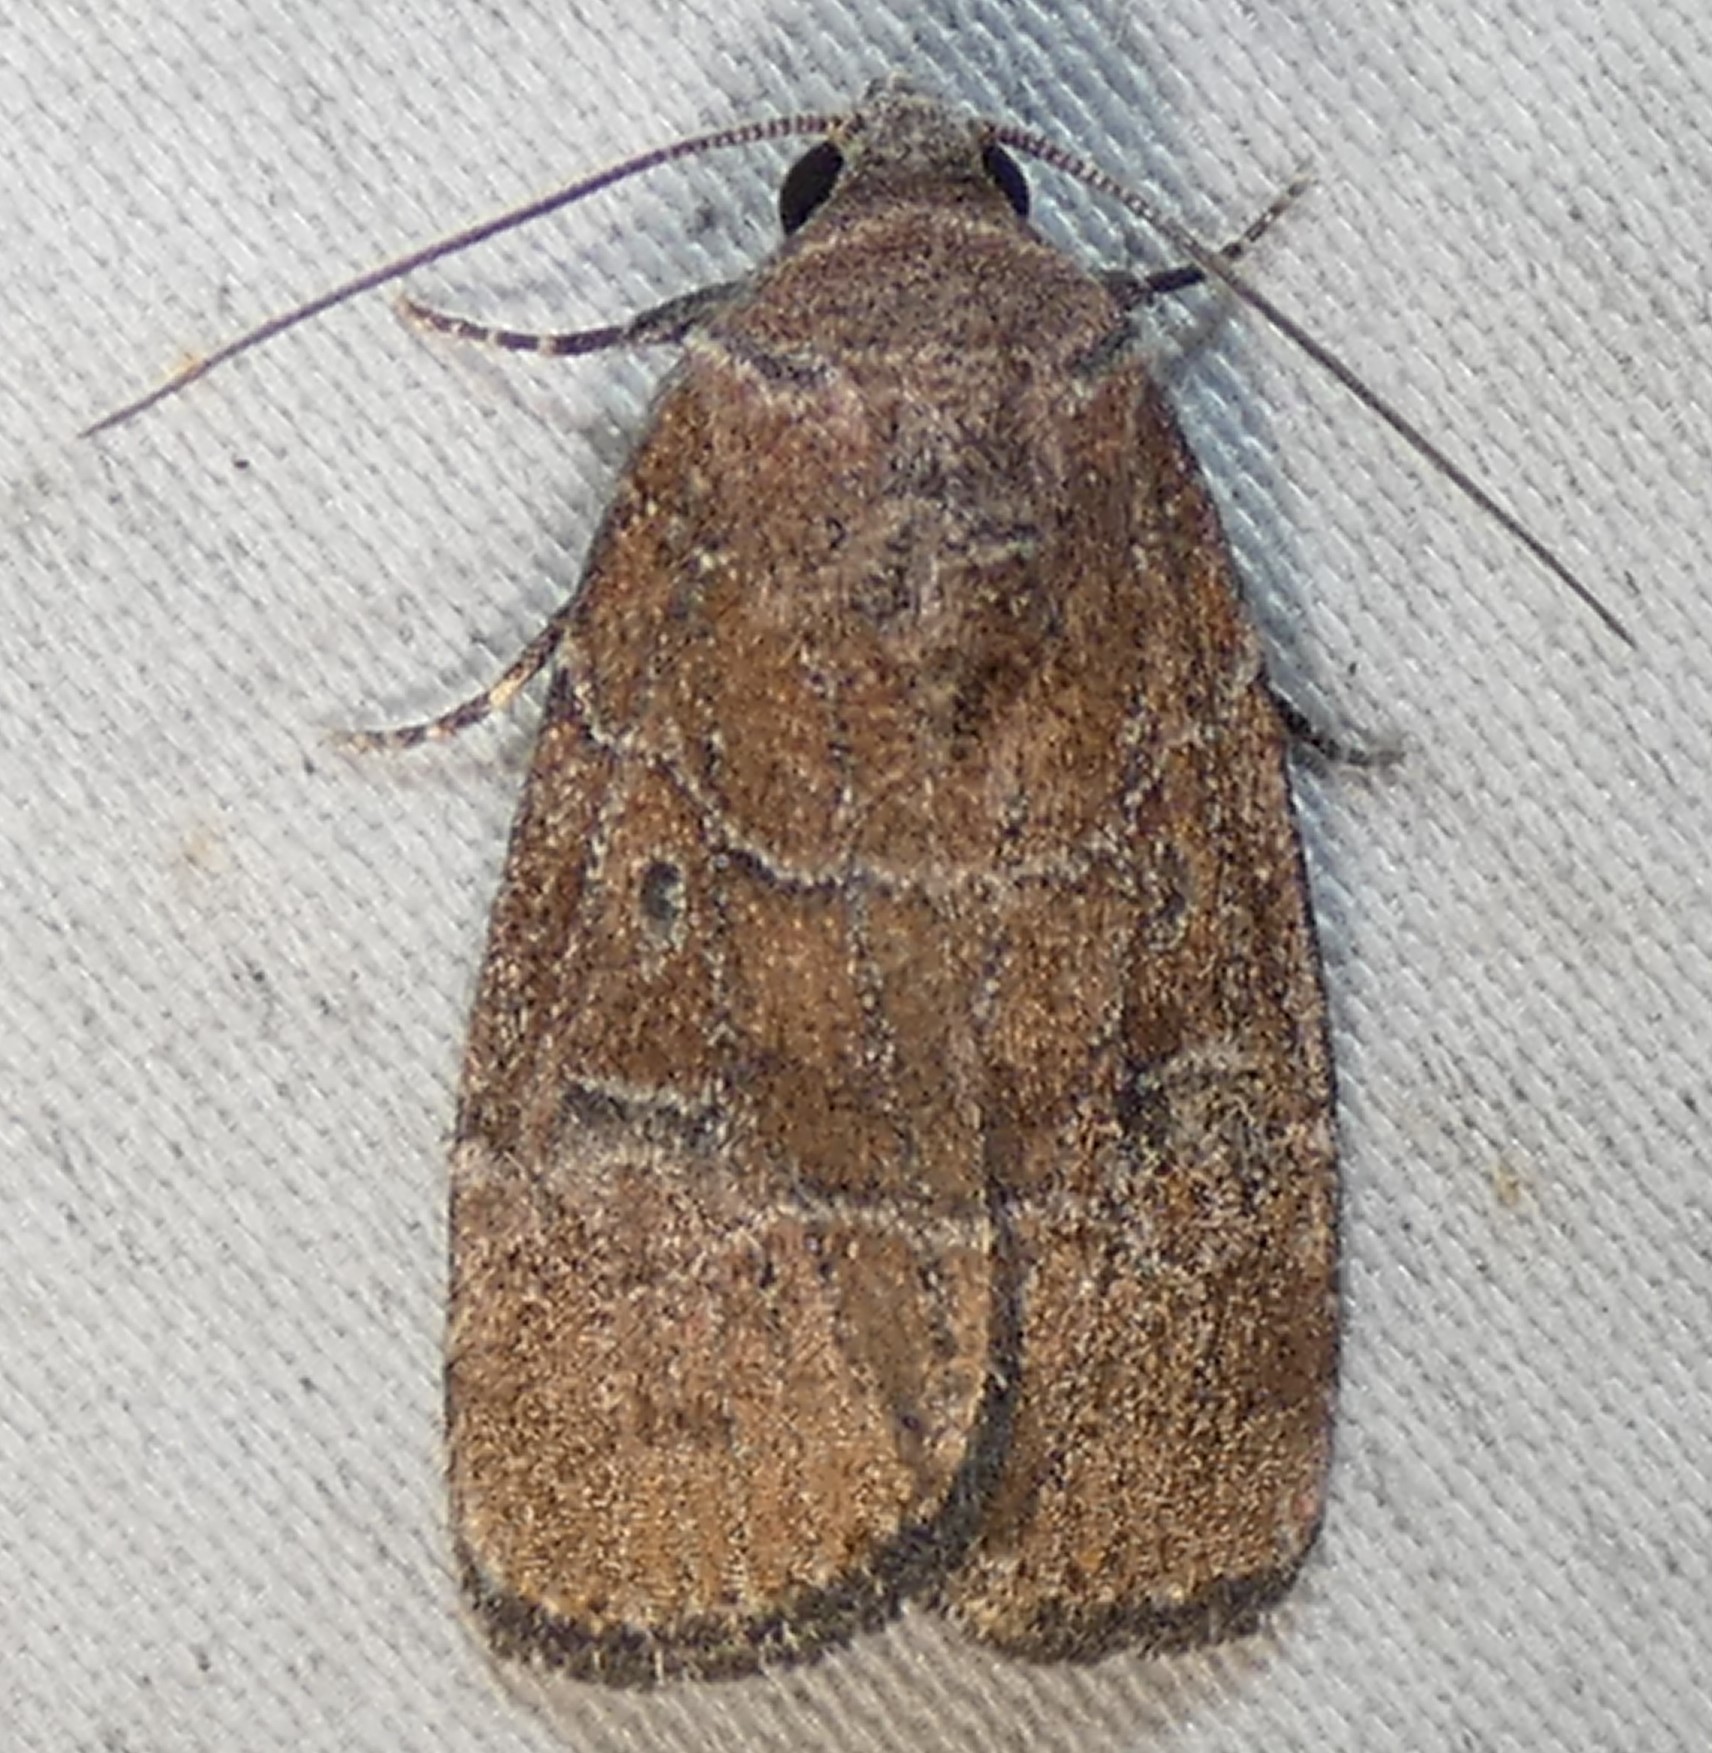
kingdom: Animalia
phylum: Arthropoda
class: Insecta
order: Lepidoptera
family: Noctuidae
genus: Elaphria
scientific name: Elaphria grata
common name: Grateful midget moth
